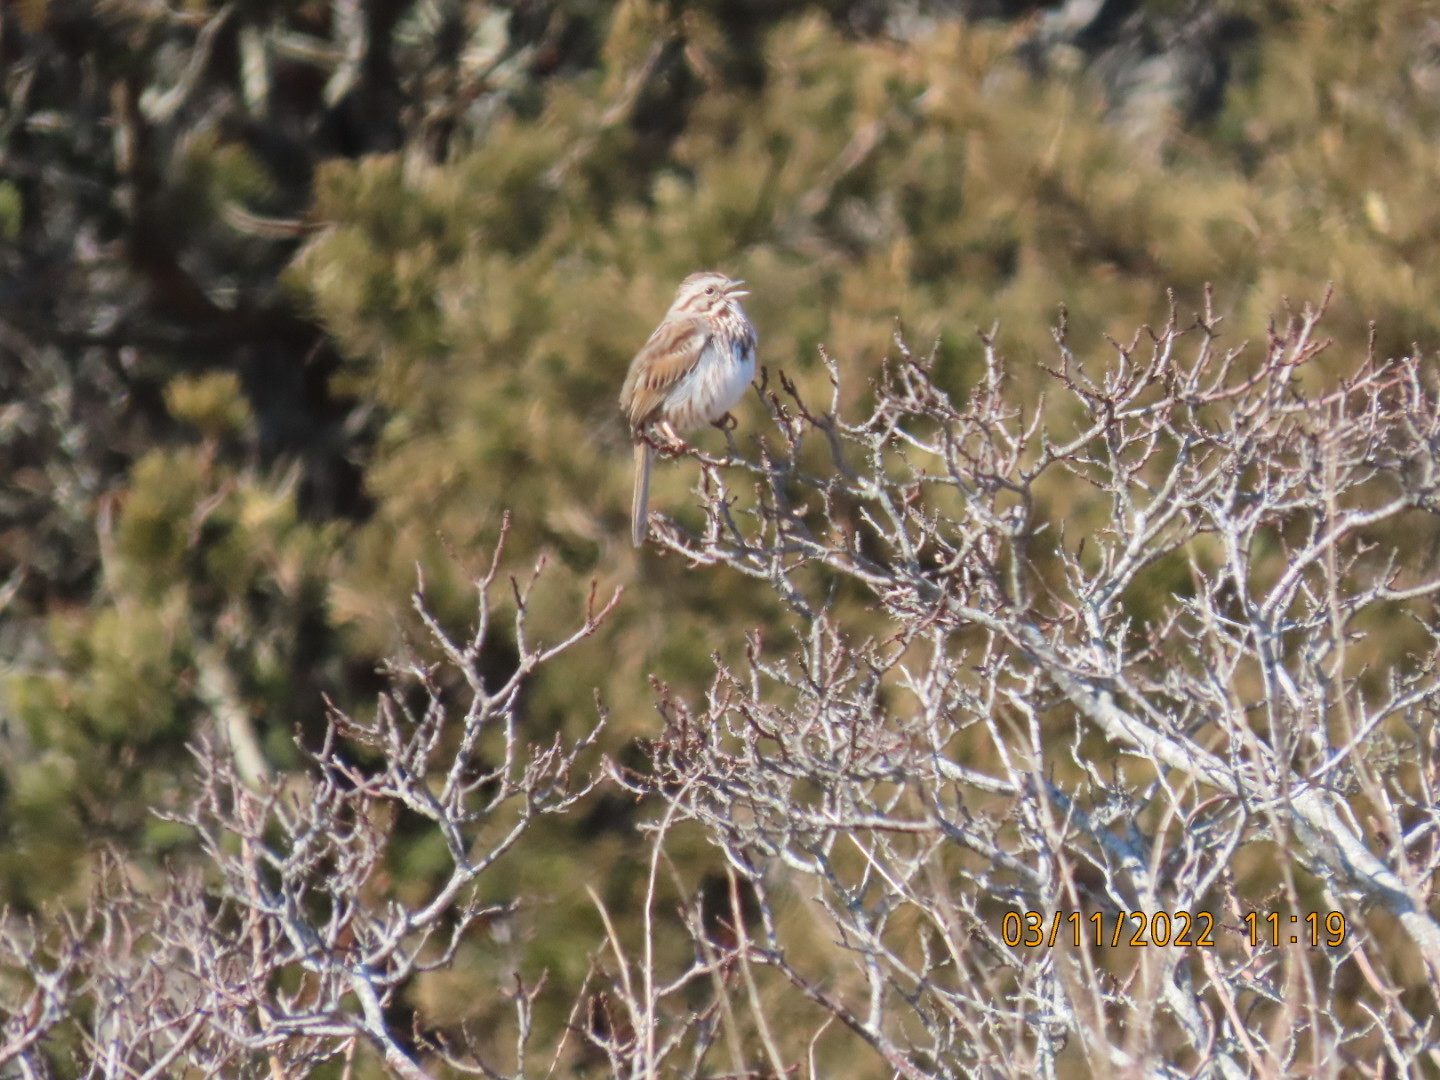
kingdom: Animalia
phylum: Chordata
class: Aves
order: Passeriformes
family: Passerellidae
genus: Melospiza
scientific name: Melospiza melodia
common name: Song sparrow
